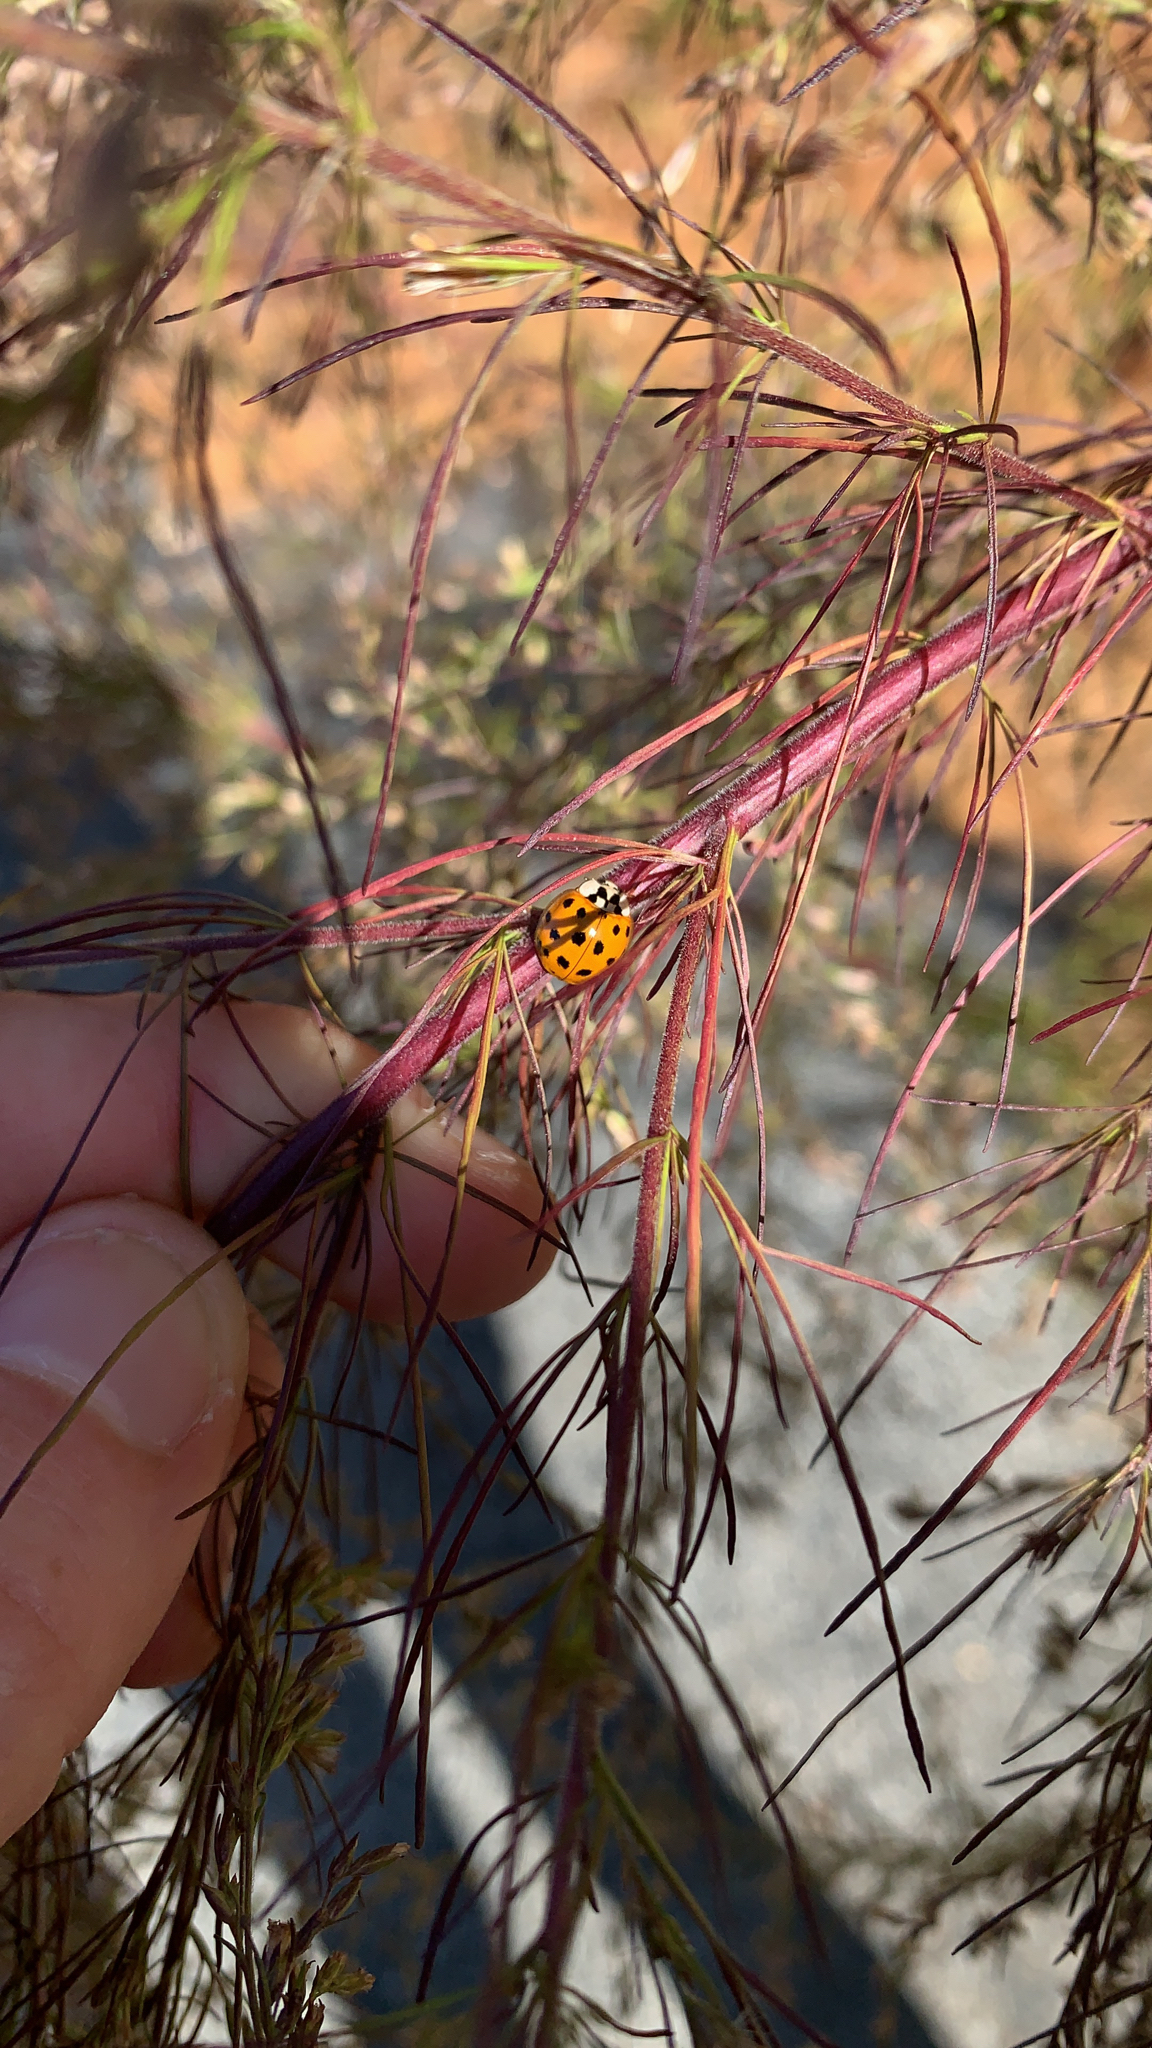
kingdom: Animalia
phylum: Arthropoda
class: Insecta
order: Coleoptera
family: Coccinellidae
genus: Harmonia
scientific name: Harmonia axyridis
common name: Harlequin ladybird
